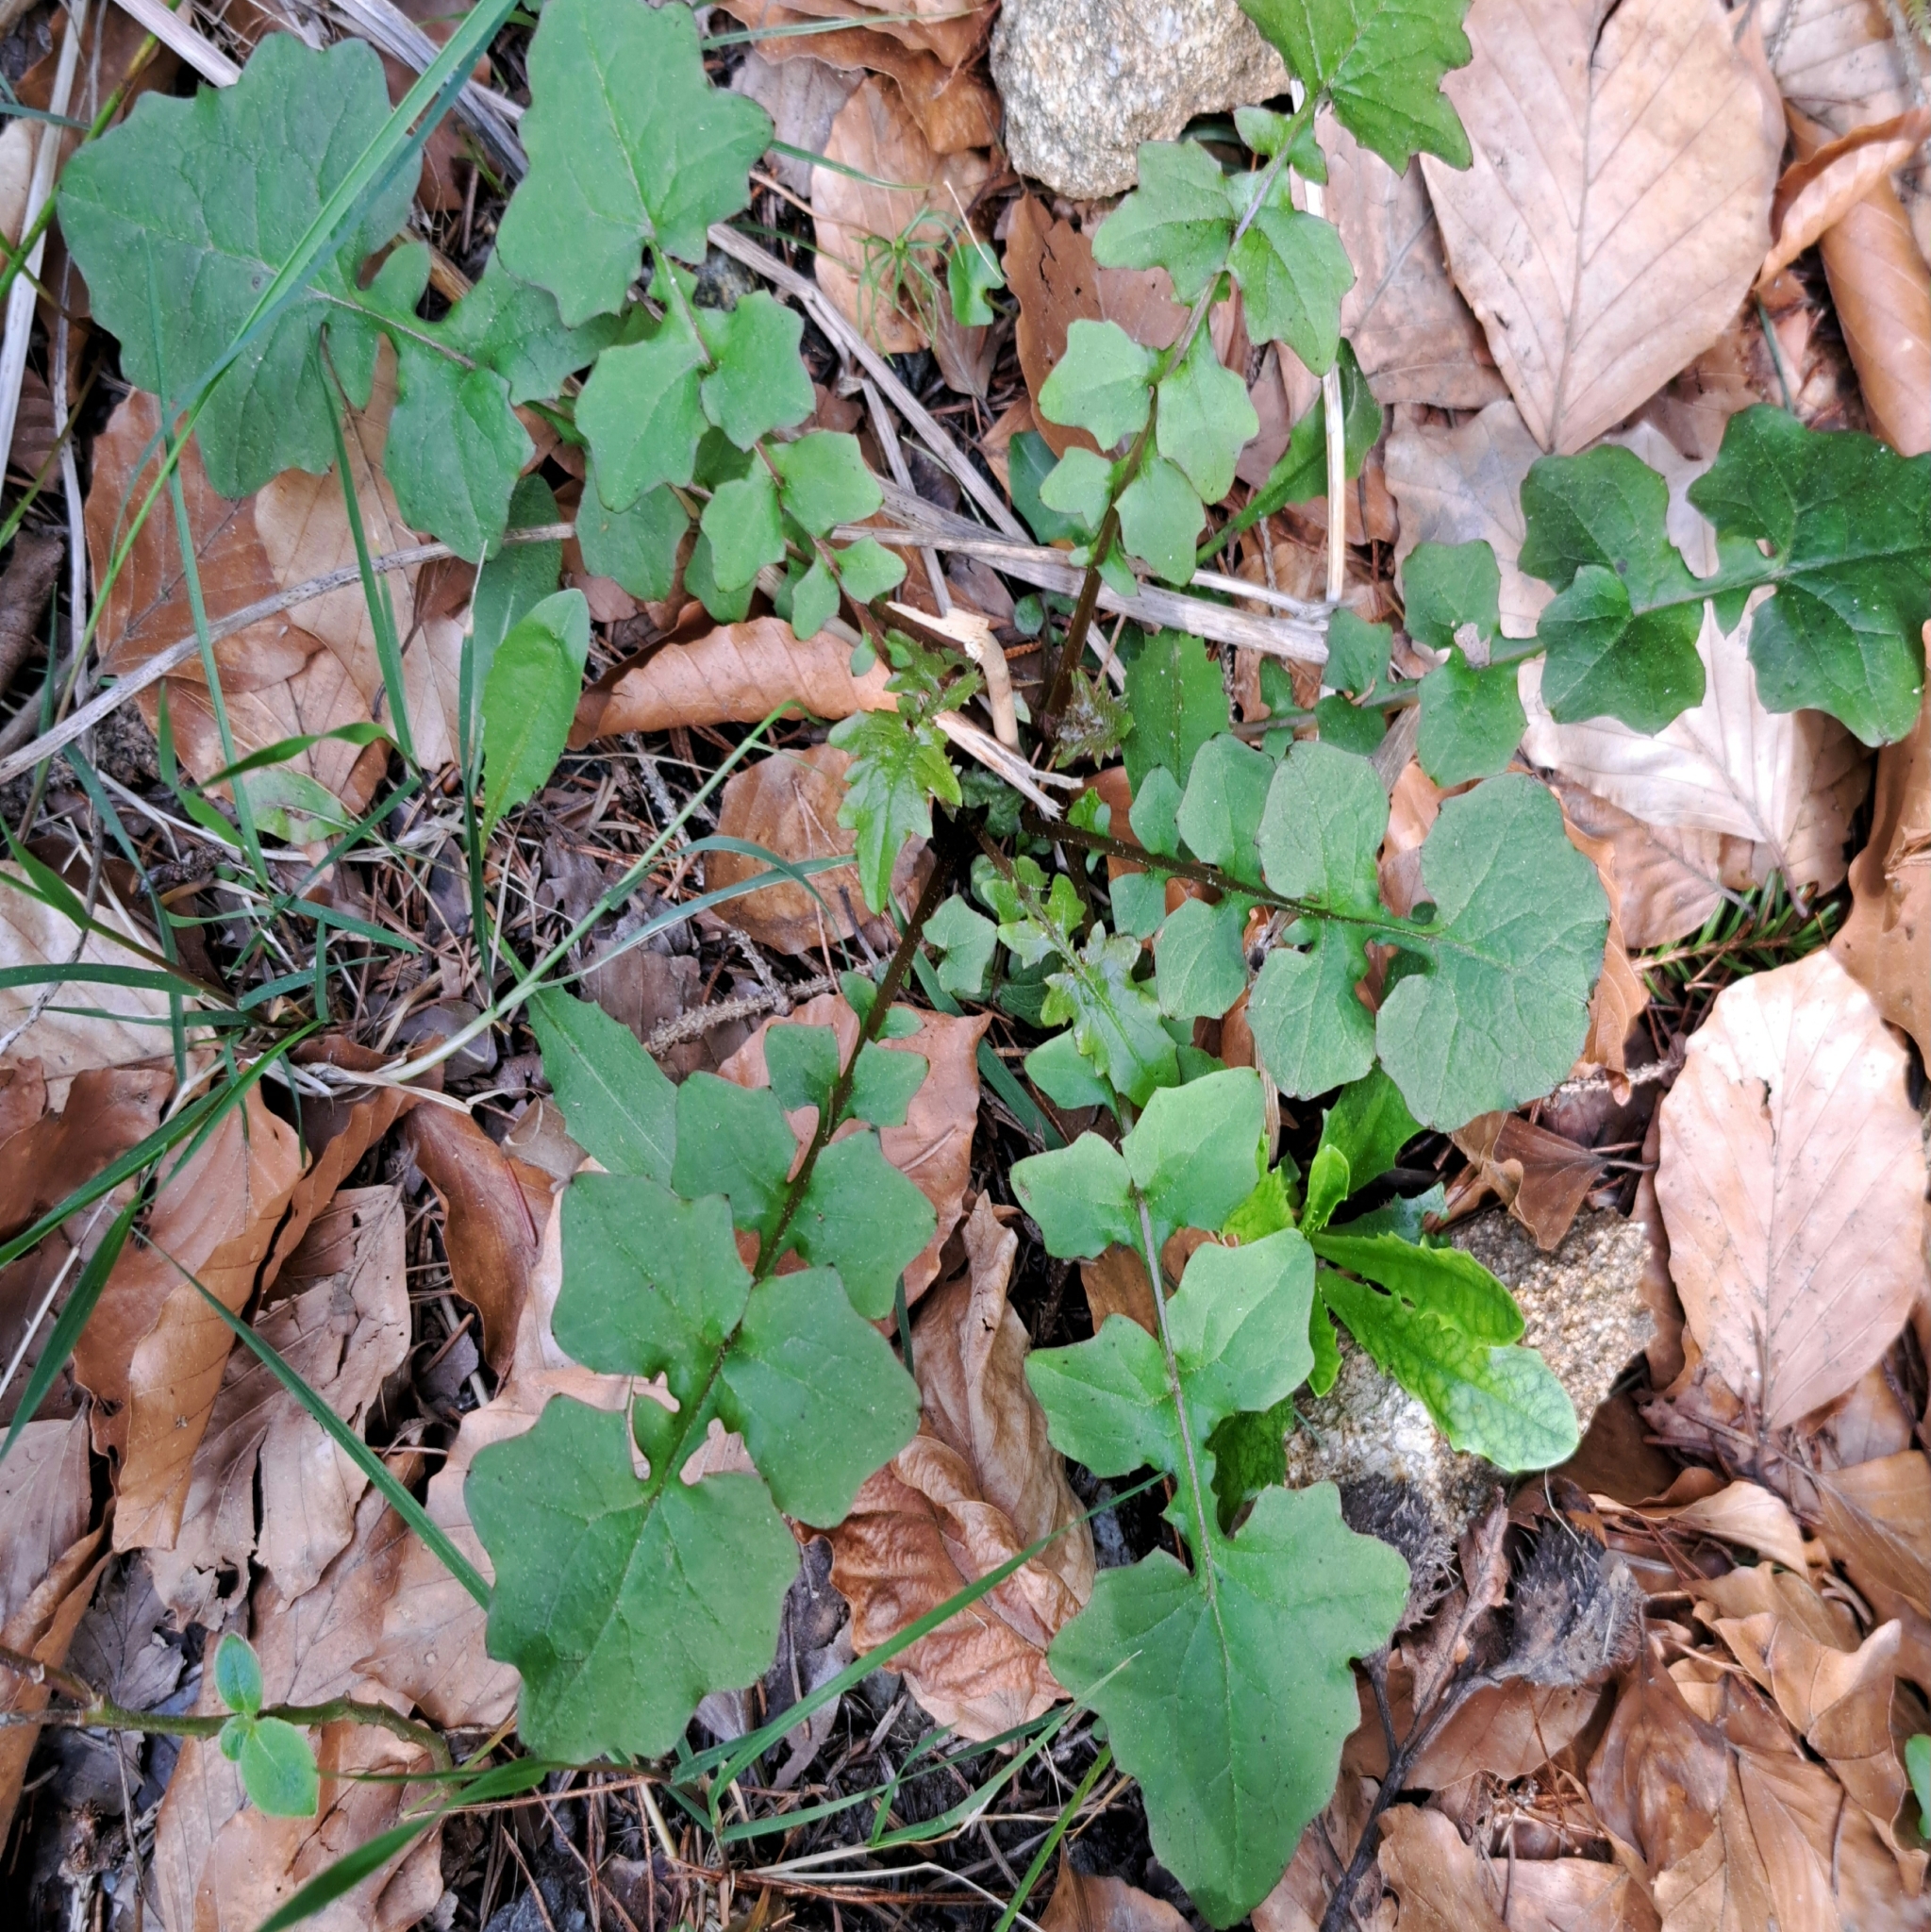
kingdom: Plantae
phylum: Tracheophyta
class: Magnoliopsida
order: Asterales
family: Asteraceae
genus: Mycelis
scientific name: Mycelis muralis
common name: Wall lettuce
